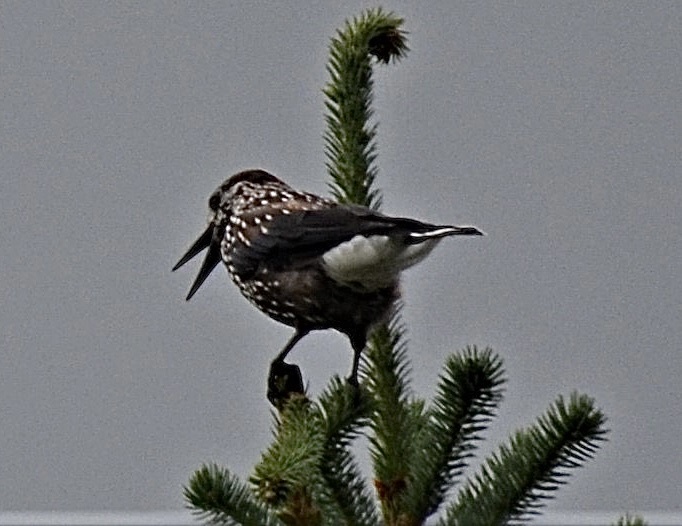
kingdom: Animalia
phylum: Chordata
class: Aves
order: Passeriformes
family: Corvidae
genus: Nucifraga
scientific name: Nucifraga caryocatactes
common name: Spotted nutcracker
